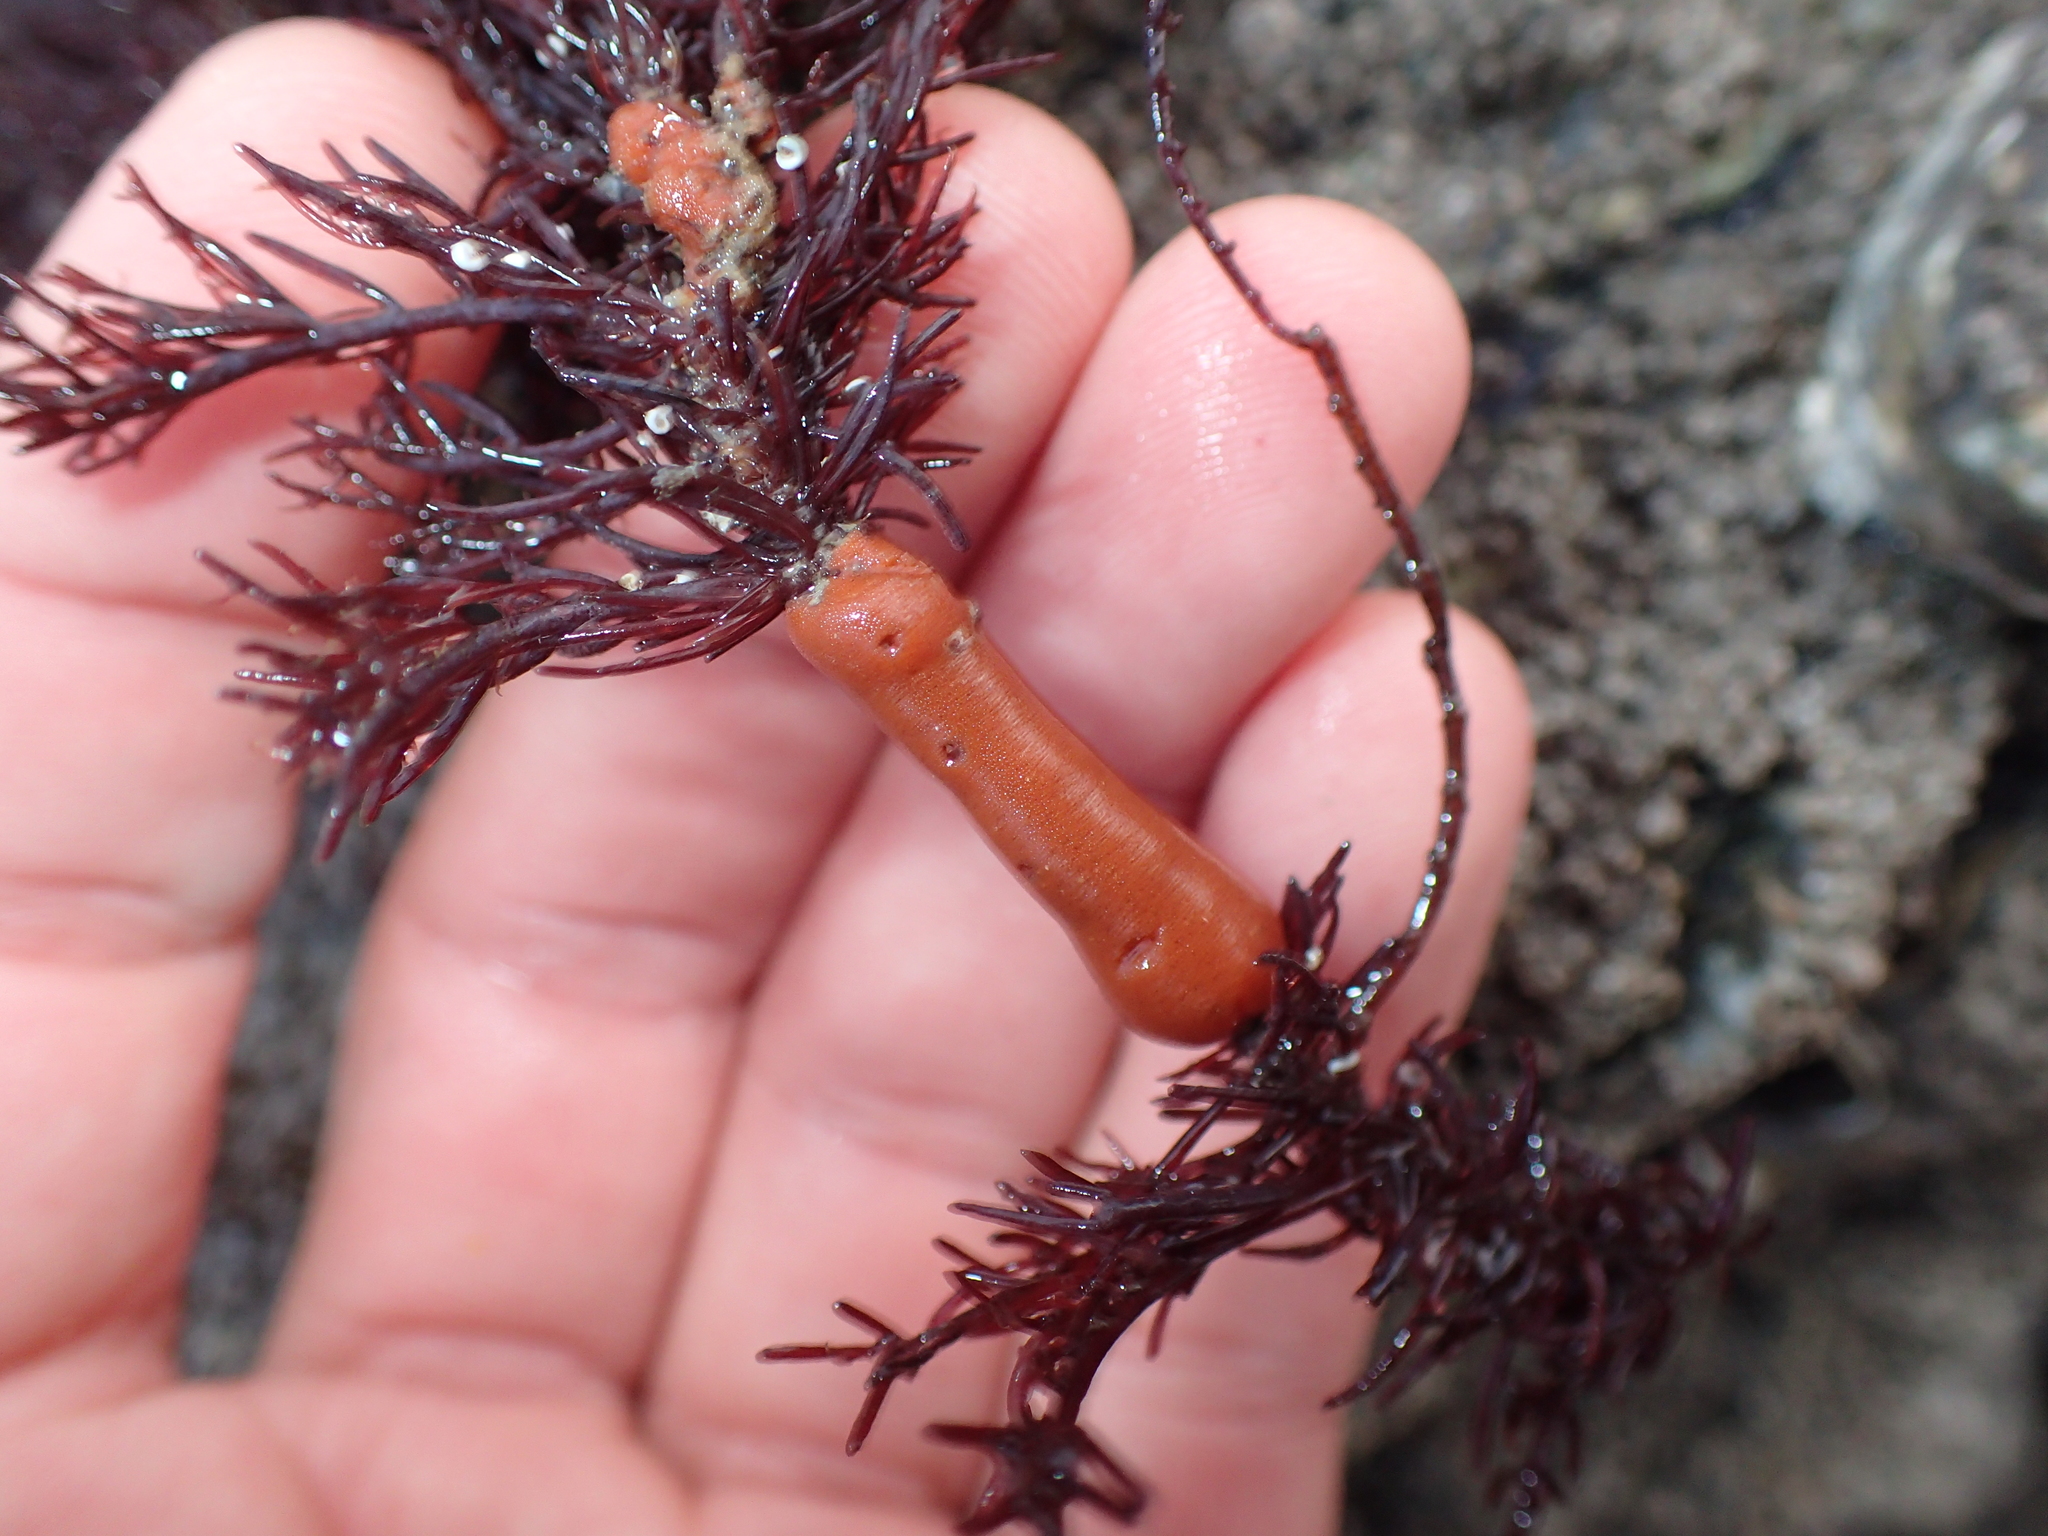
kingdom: Animalia
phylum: Porifera
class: Demospongiae
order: Poecilosclerida
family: Microcionidae
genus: Ophlitaspongia
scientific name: Ophlitaspongia papilla
